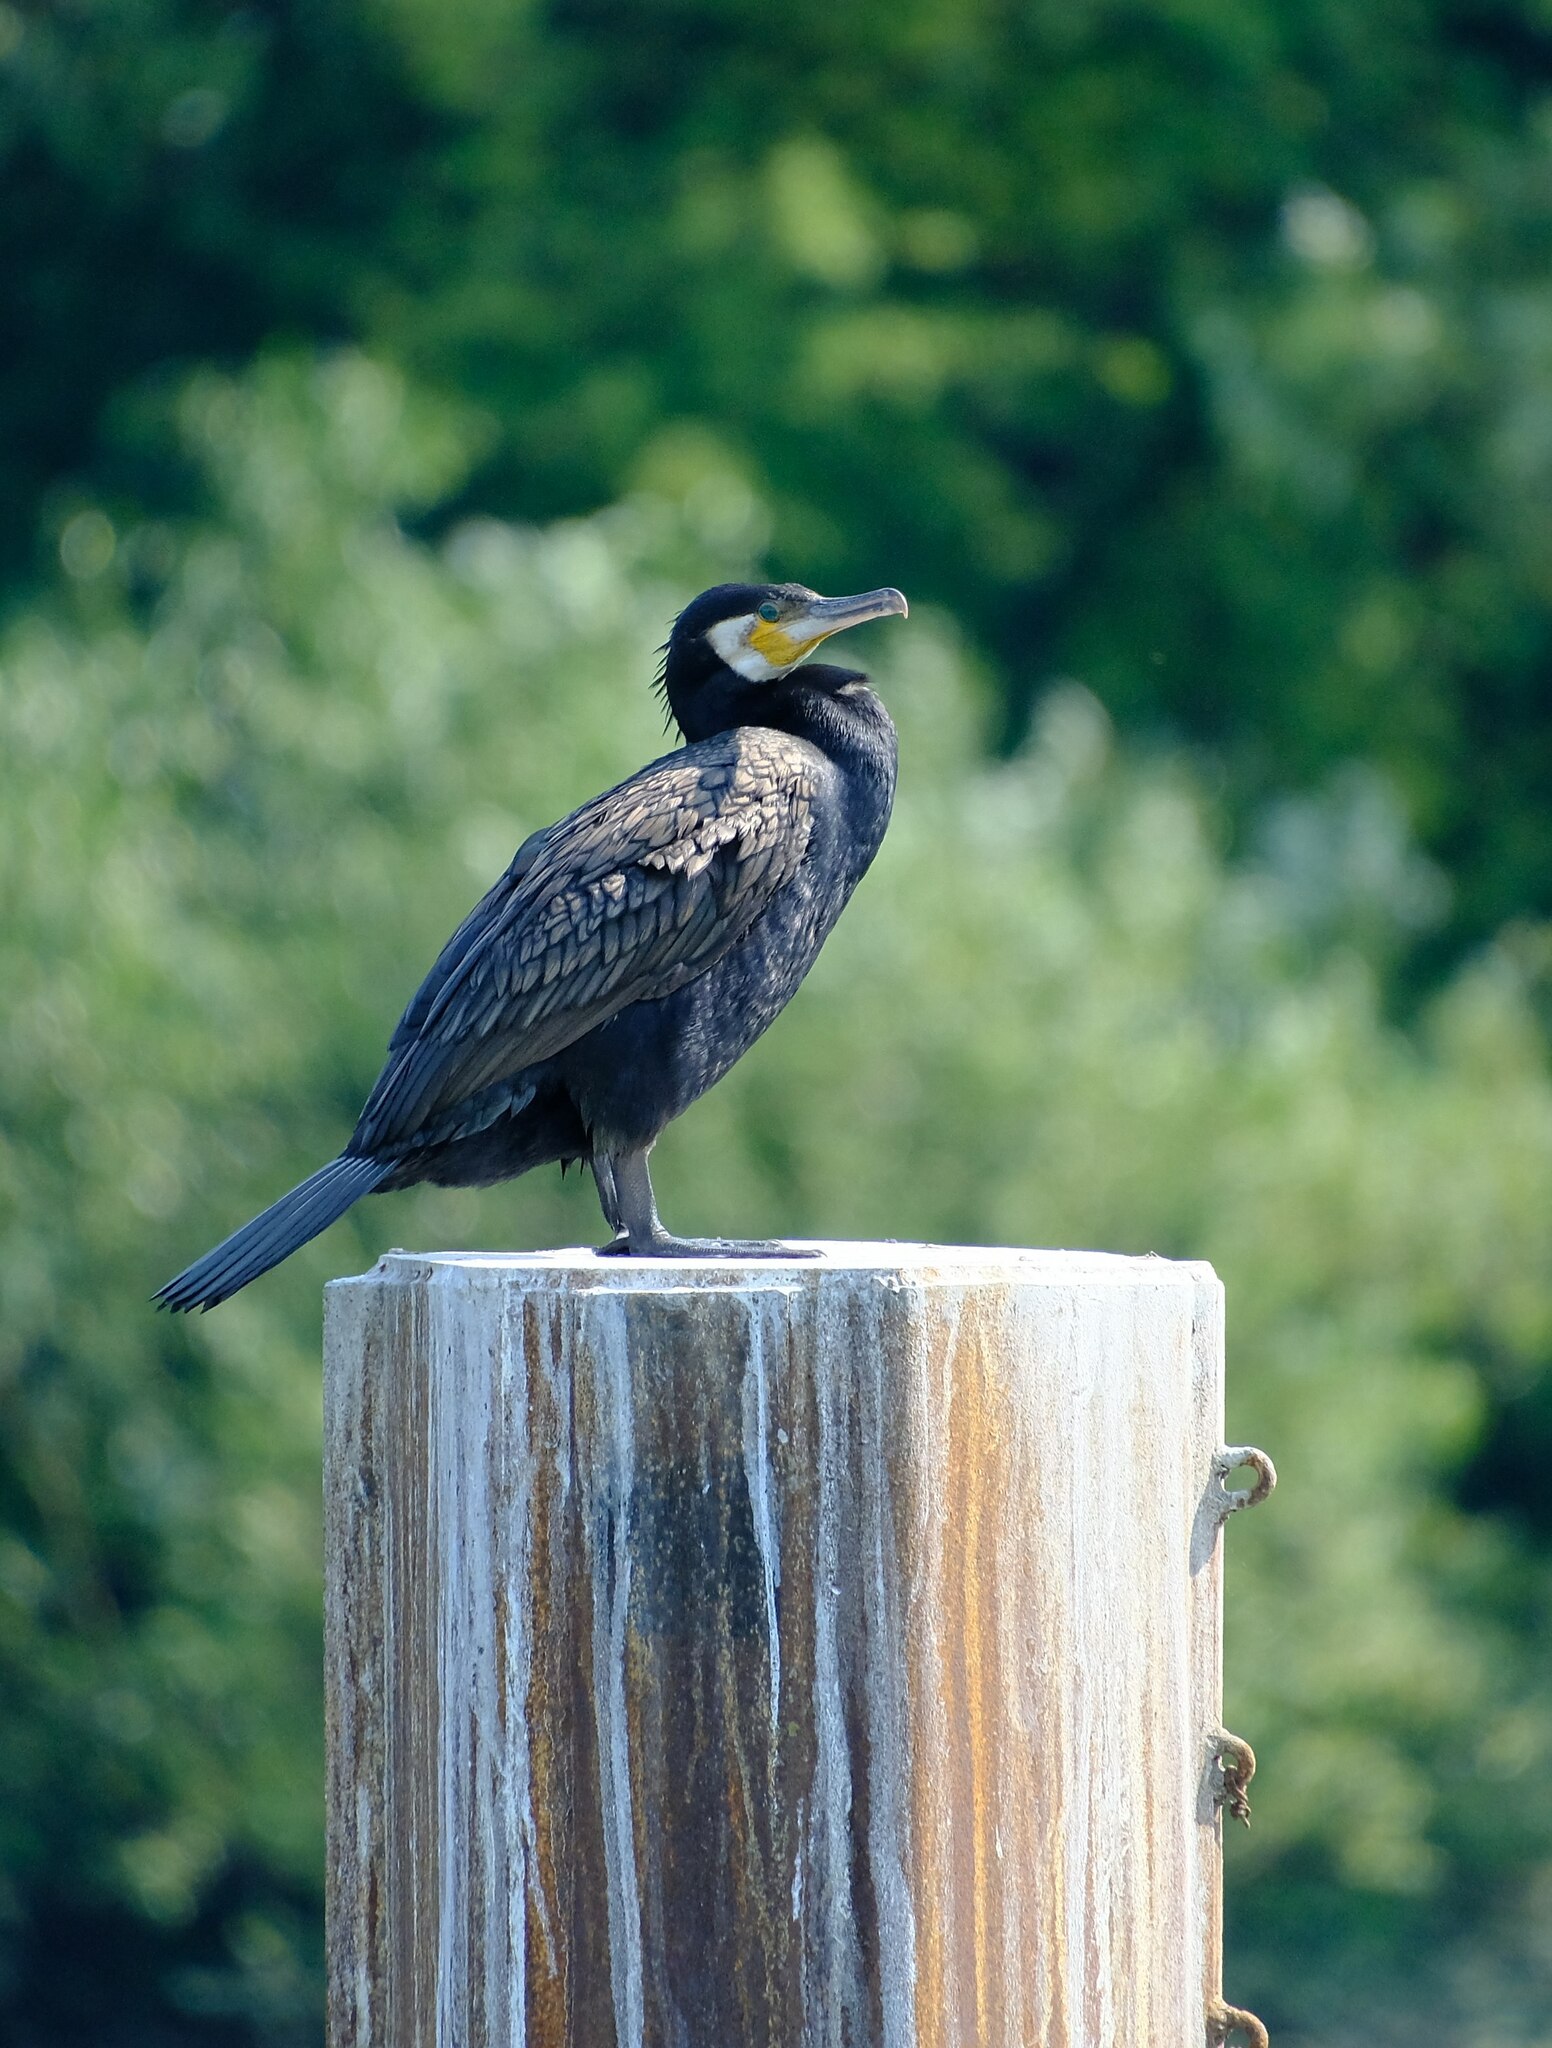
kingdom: Animalia
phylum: Chordata
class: Aves
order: Suliformes
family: Phalacrocoracidae
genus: Phalacrocorax
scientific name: Phalacrocorax carbo
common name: Great cormorant
